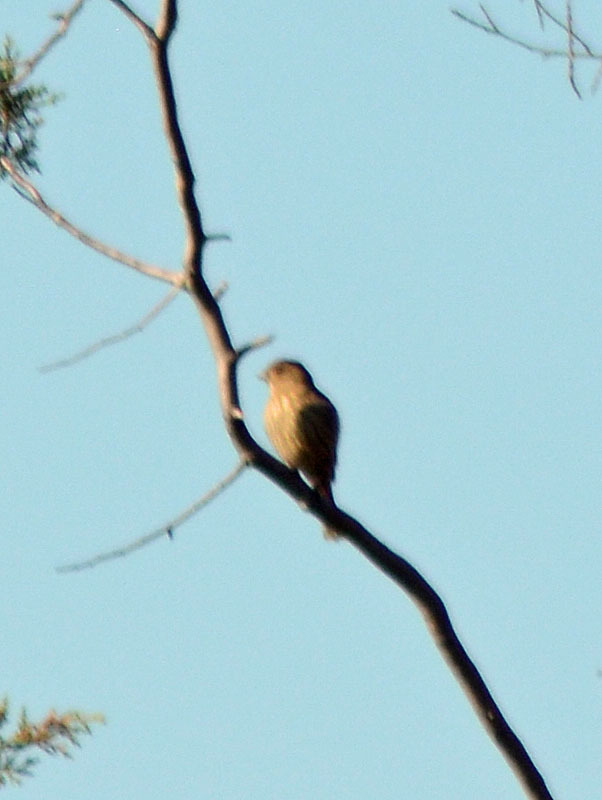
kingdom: Animalia
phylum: Chordata
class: Aves
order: Passeriformes
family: Fringillidae
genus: Haemorhous
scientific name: Haemorhous mexicanus
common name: House finch
